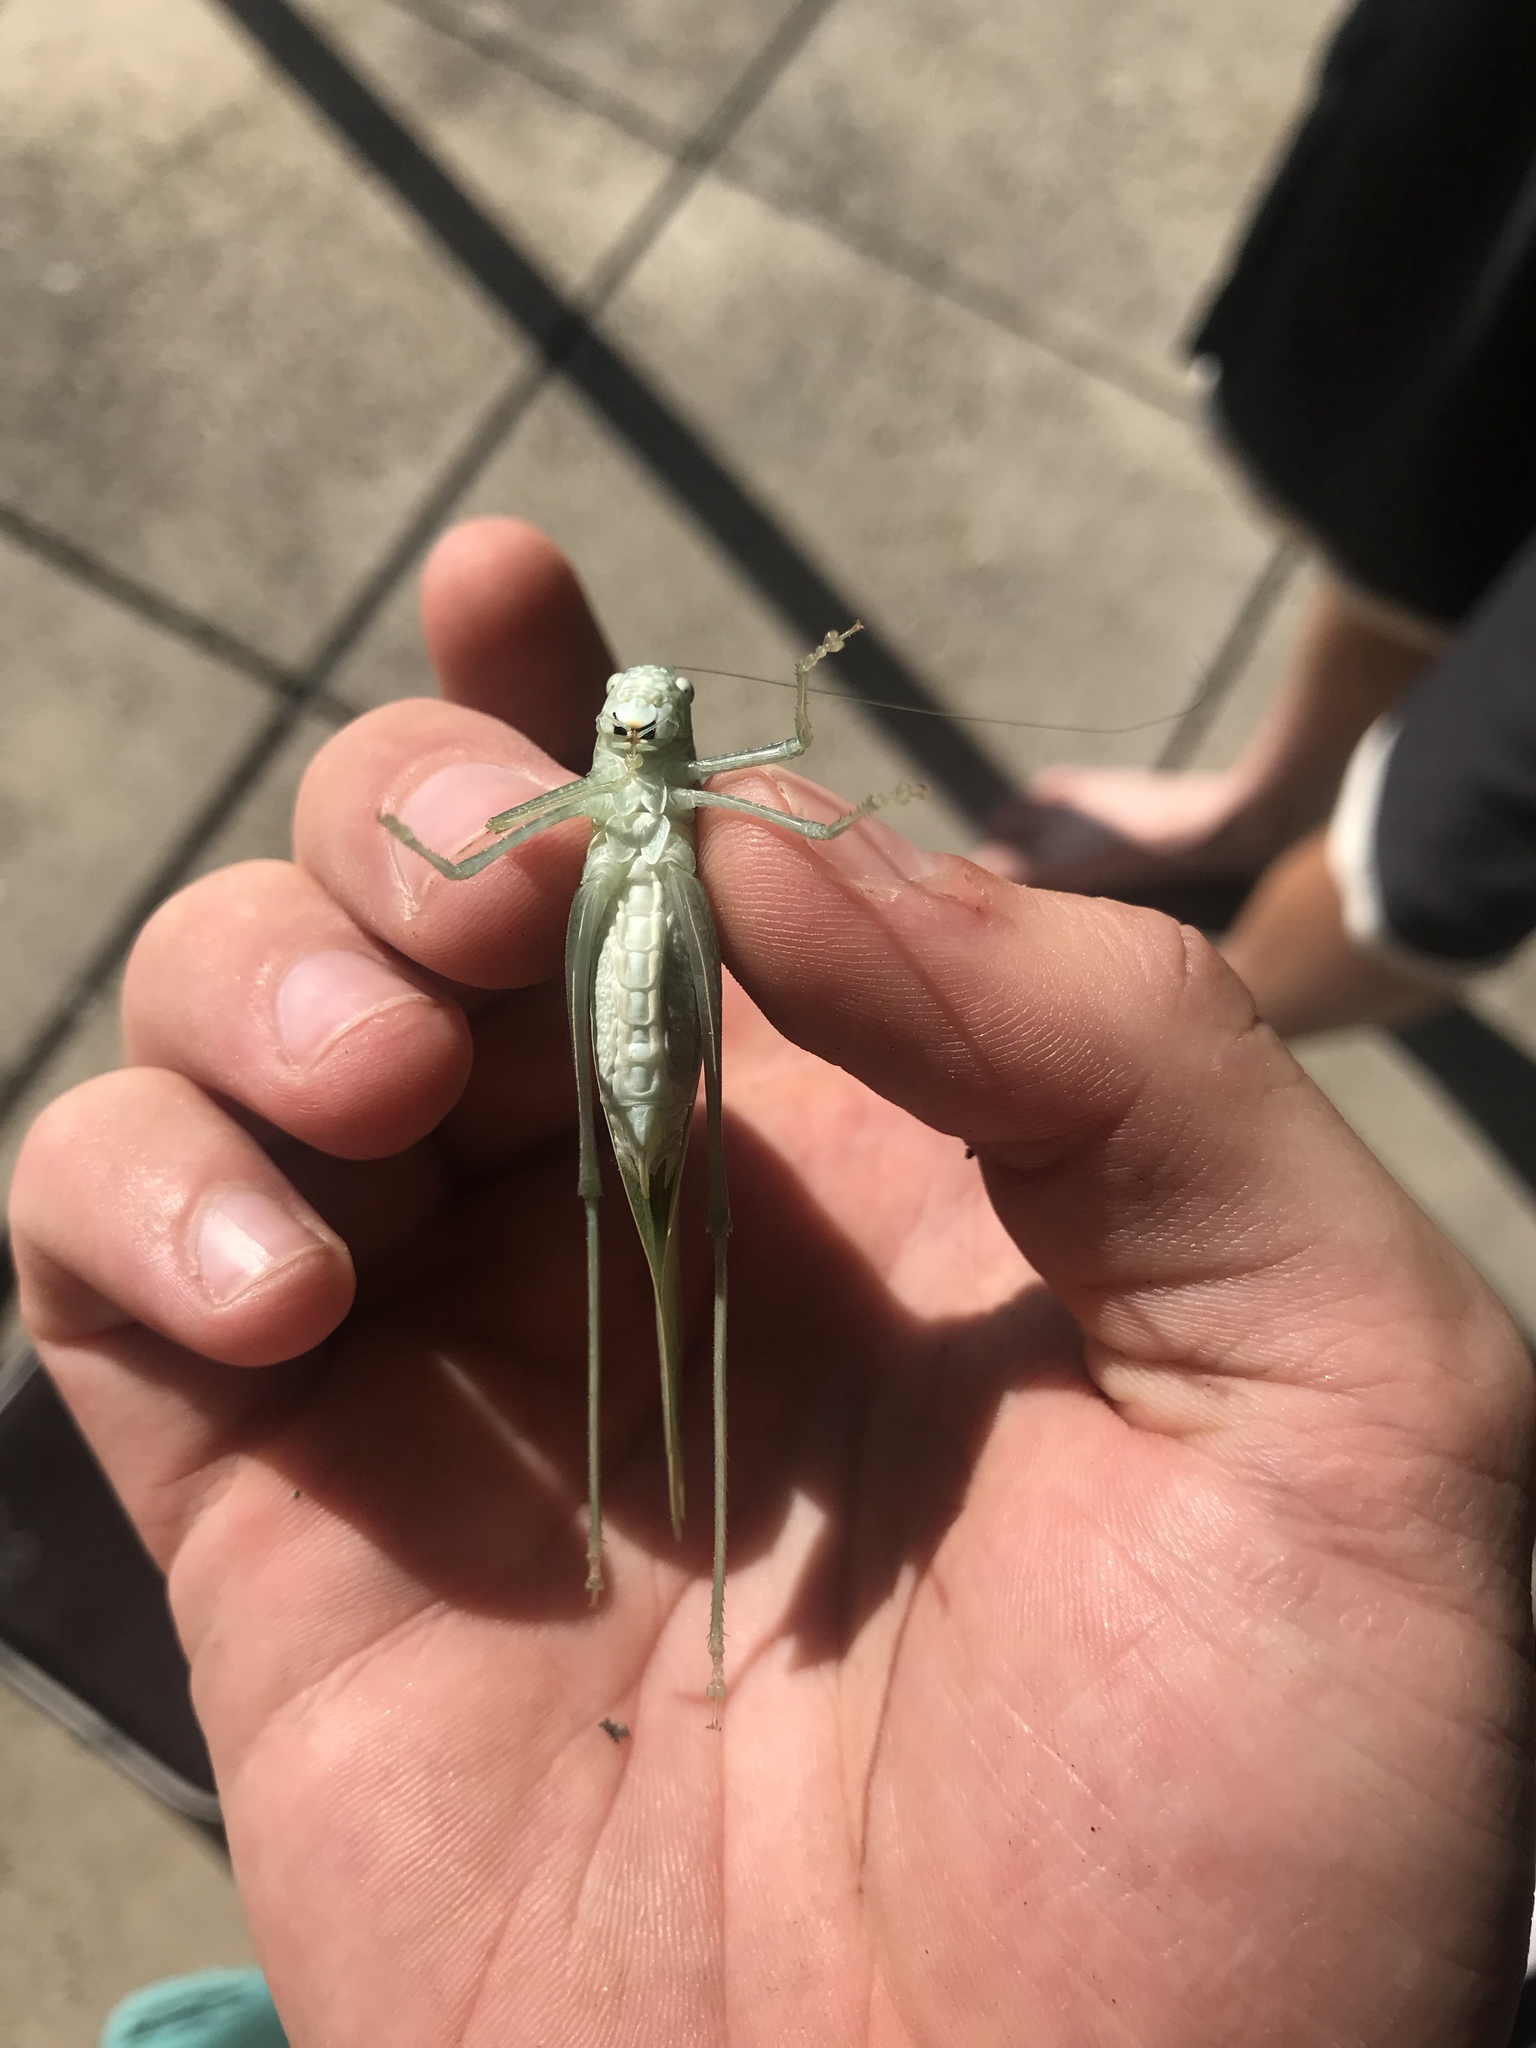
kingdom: Animalia
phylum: Arthropoda
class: Insecta
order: Orthoptera
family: Tettigoniidae
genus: Microcentrum
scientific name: Microcentrum rhombifolium
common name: Broad-winged katydid
